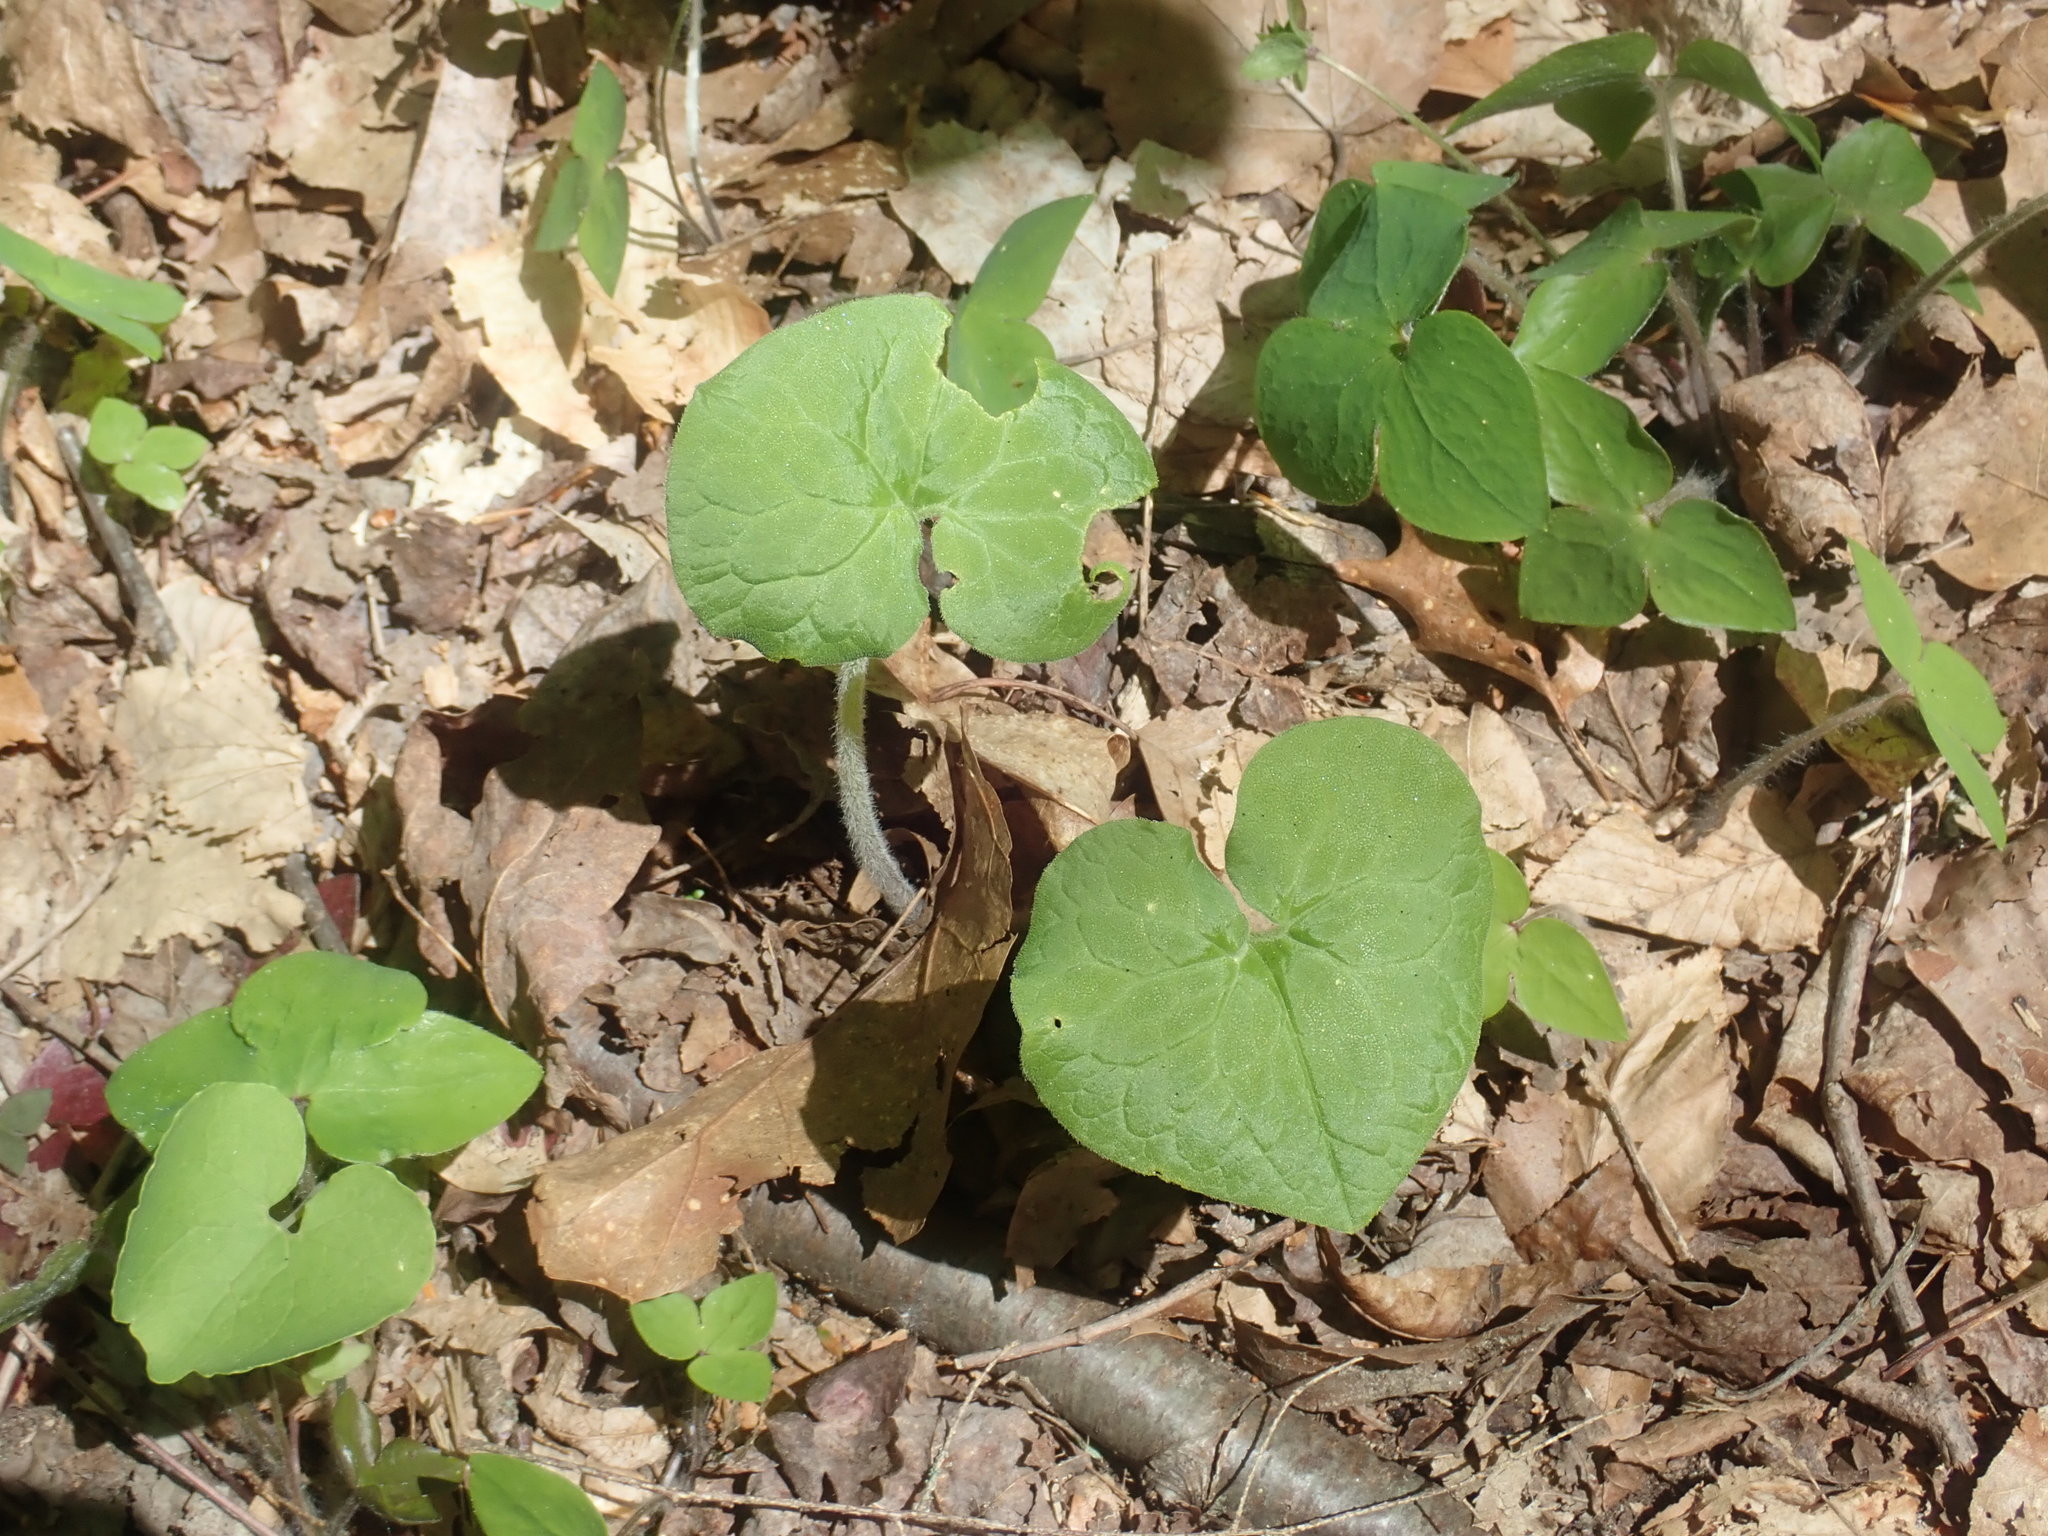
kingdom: Plantae
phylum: Tracheophyta
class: Magnoliopsida
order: Piperales
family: Aristolochiaceae
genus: Asarum
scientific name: Asarum canadense
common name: Wild ginger
